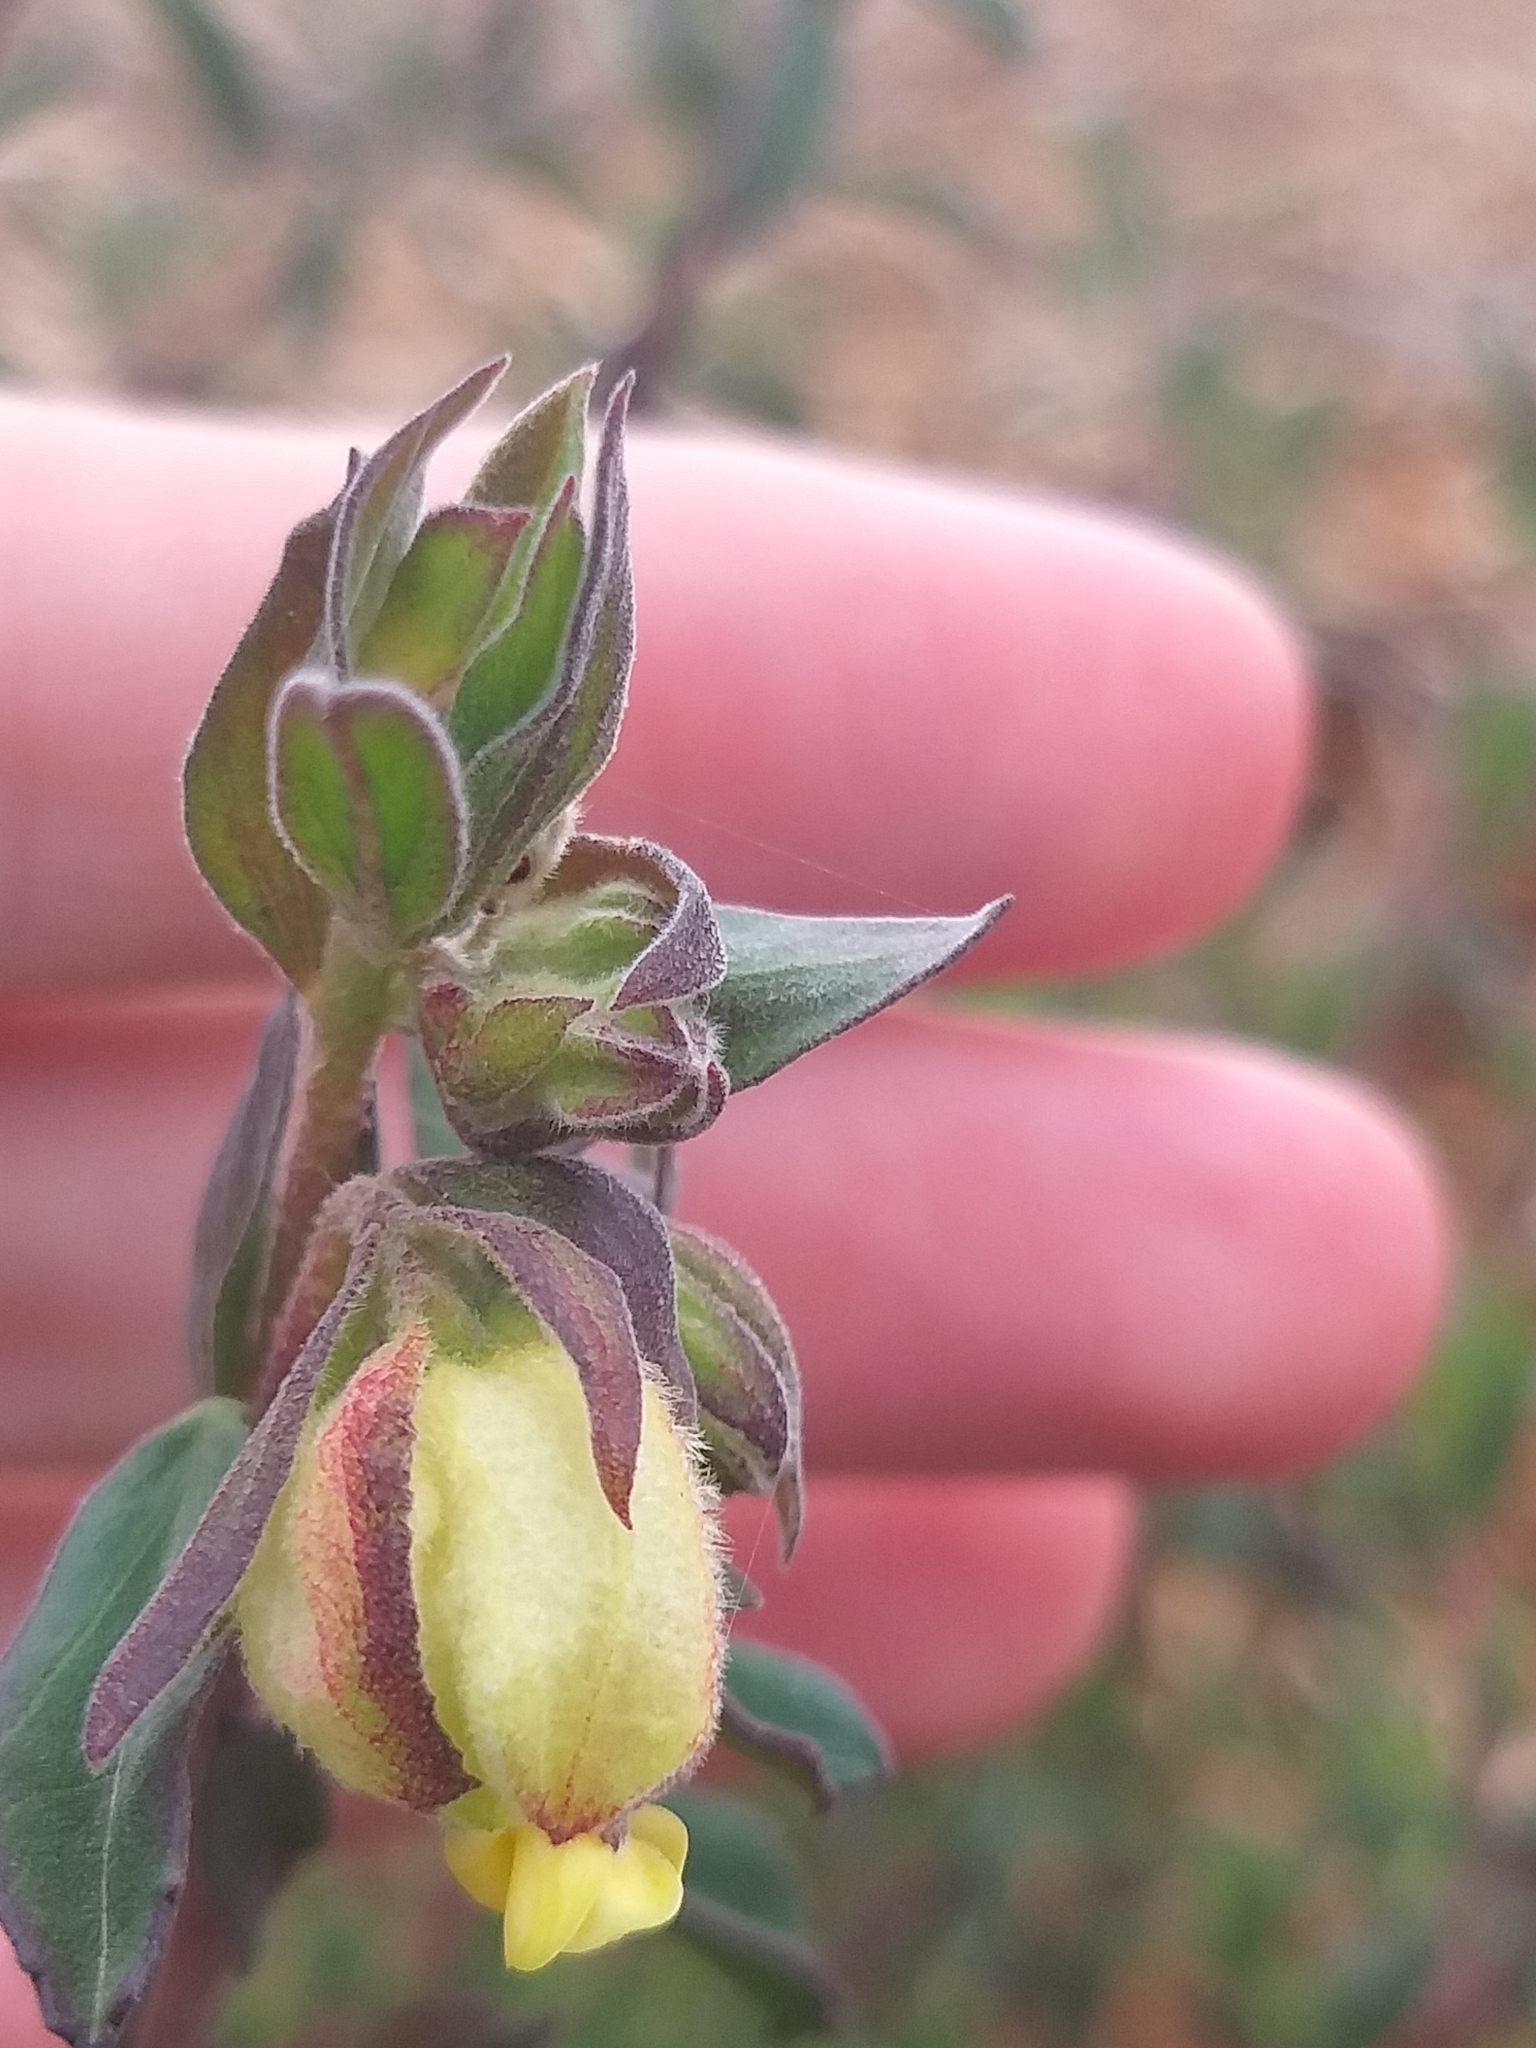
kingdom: Plantae
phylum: Tracheophyta
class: Magnoliopsida
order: Malvales
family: Malvaceae
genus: Hermannia
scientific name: Hermannia hyssopifolia
